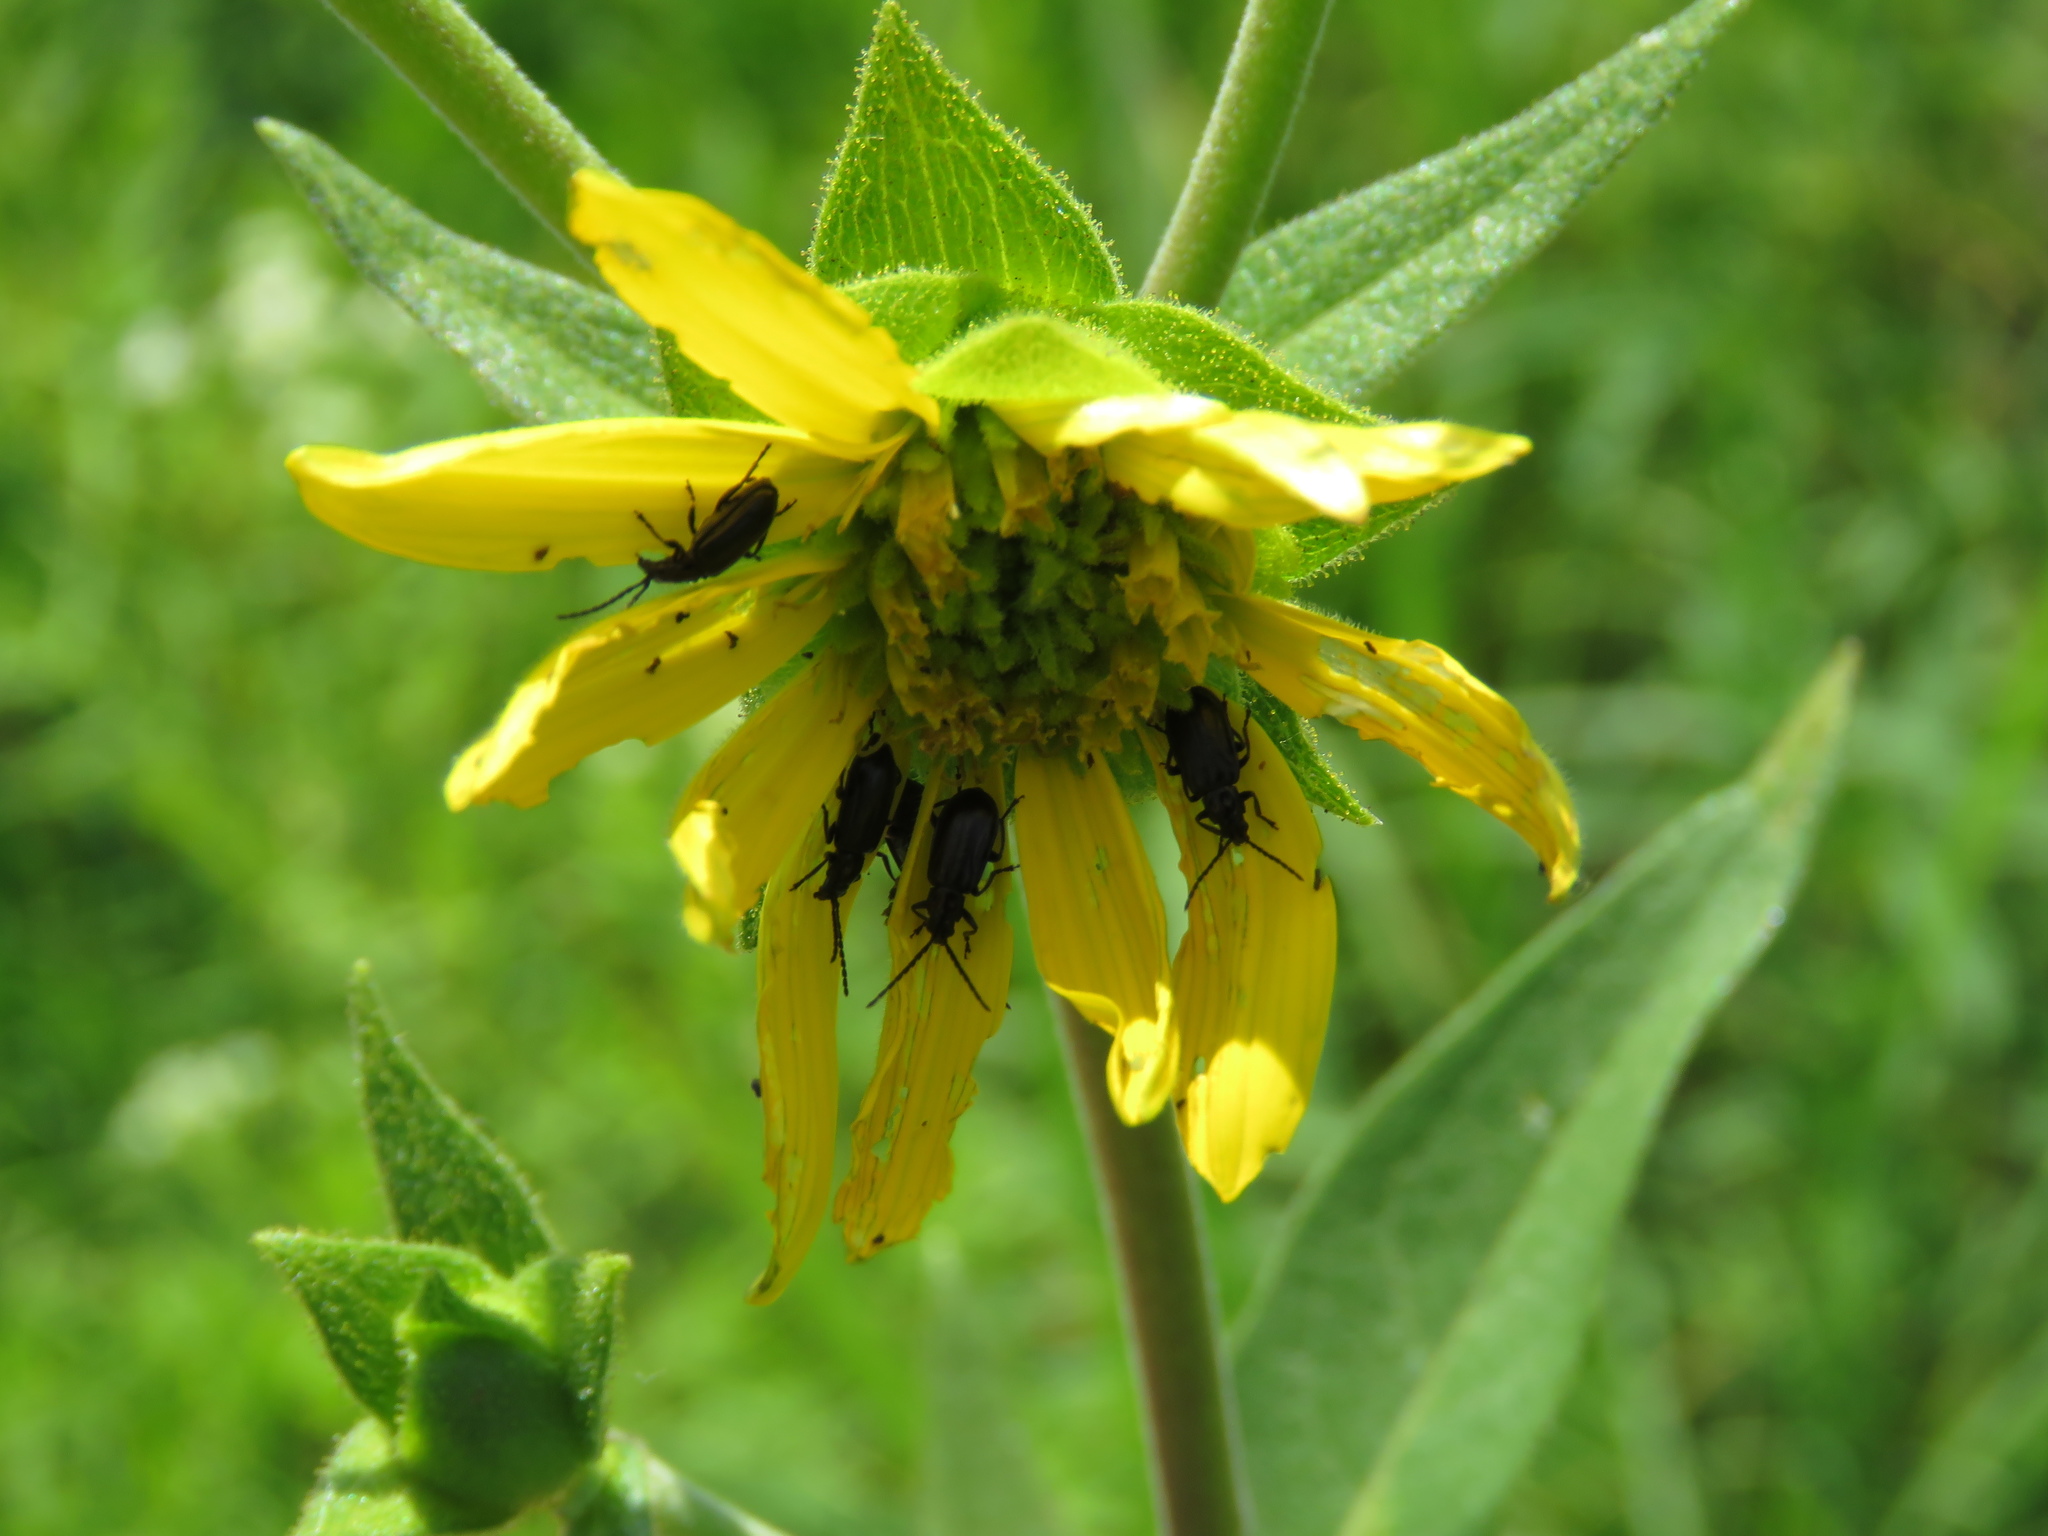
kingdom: Animalia
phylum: Arthropoda
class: Insecta
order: Coleoptera
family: Chrysomelidae
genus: Diabrotica
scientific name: Diabrotica cristata
